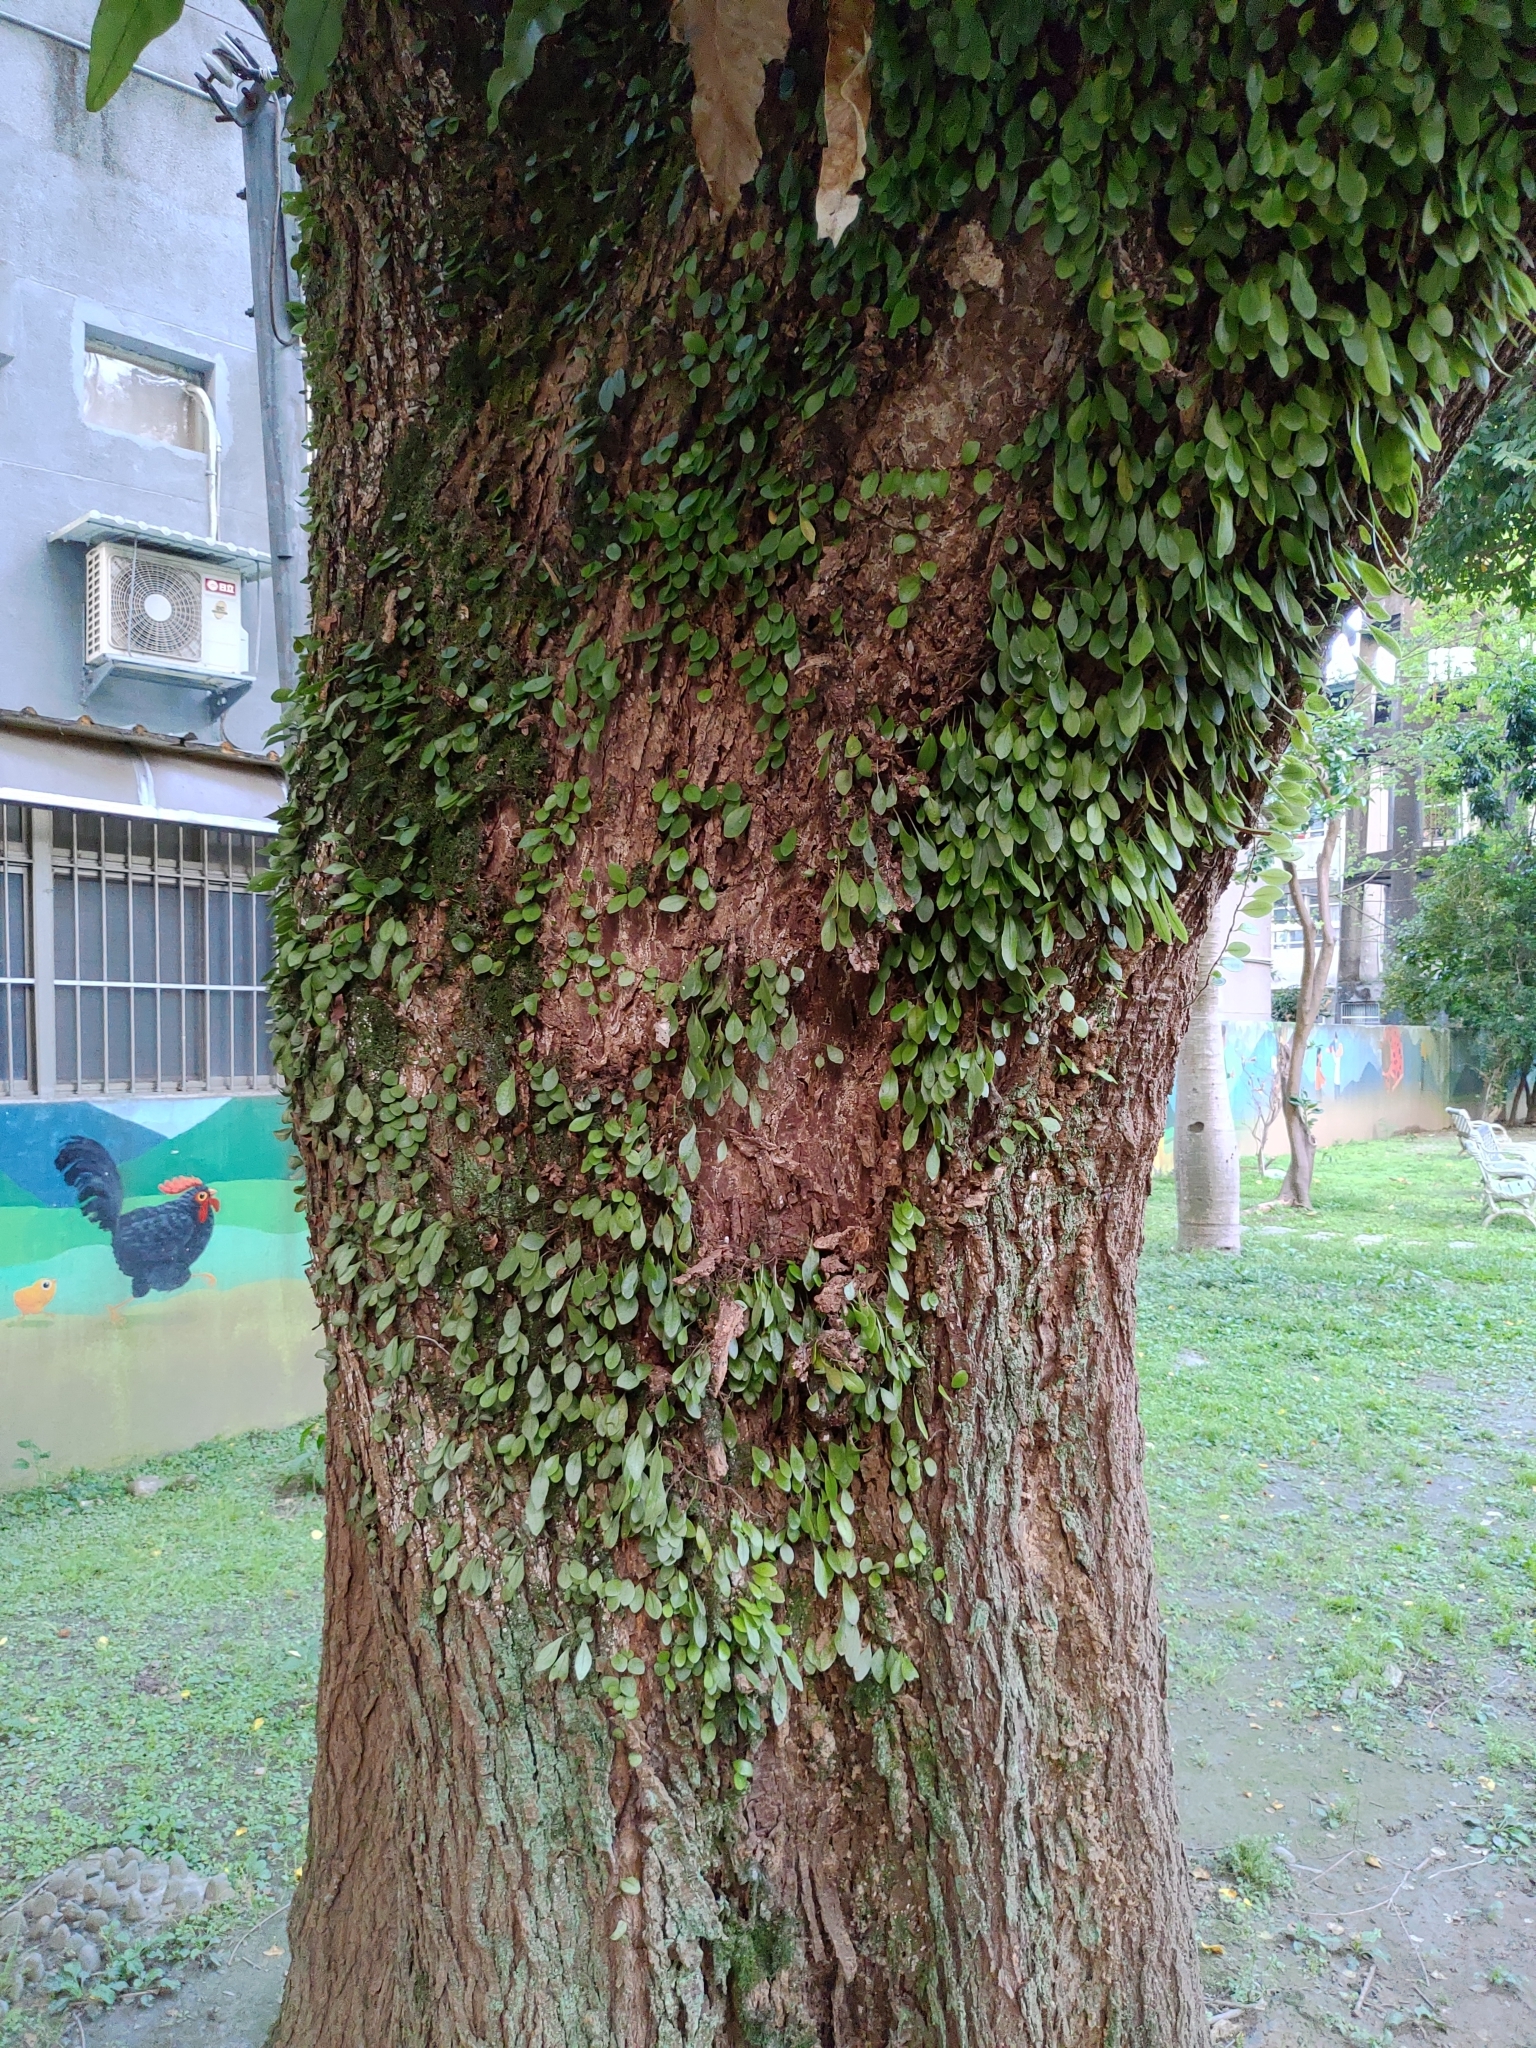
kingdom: Plantae
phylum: Tracheophyta
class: Polypodiopsida
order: Polypodiales
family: Polypodiaceae
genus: Lepisorus
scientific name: Lepisorus microphyllus
